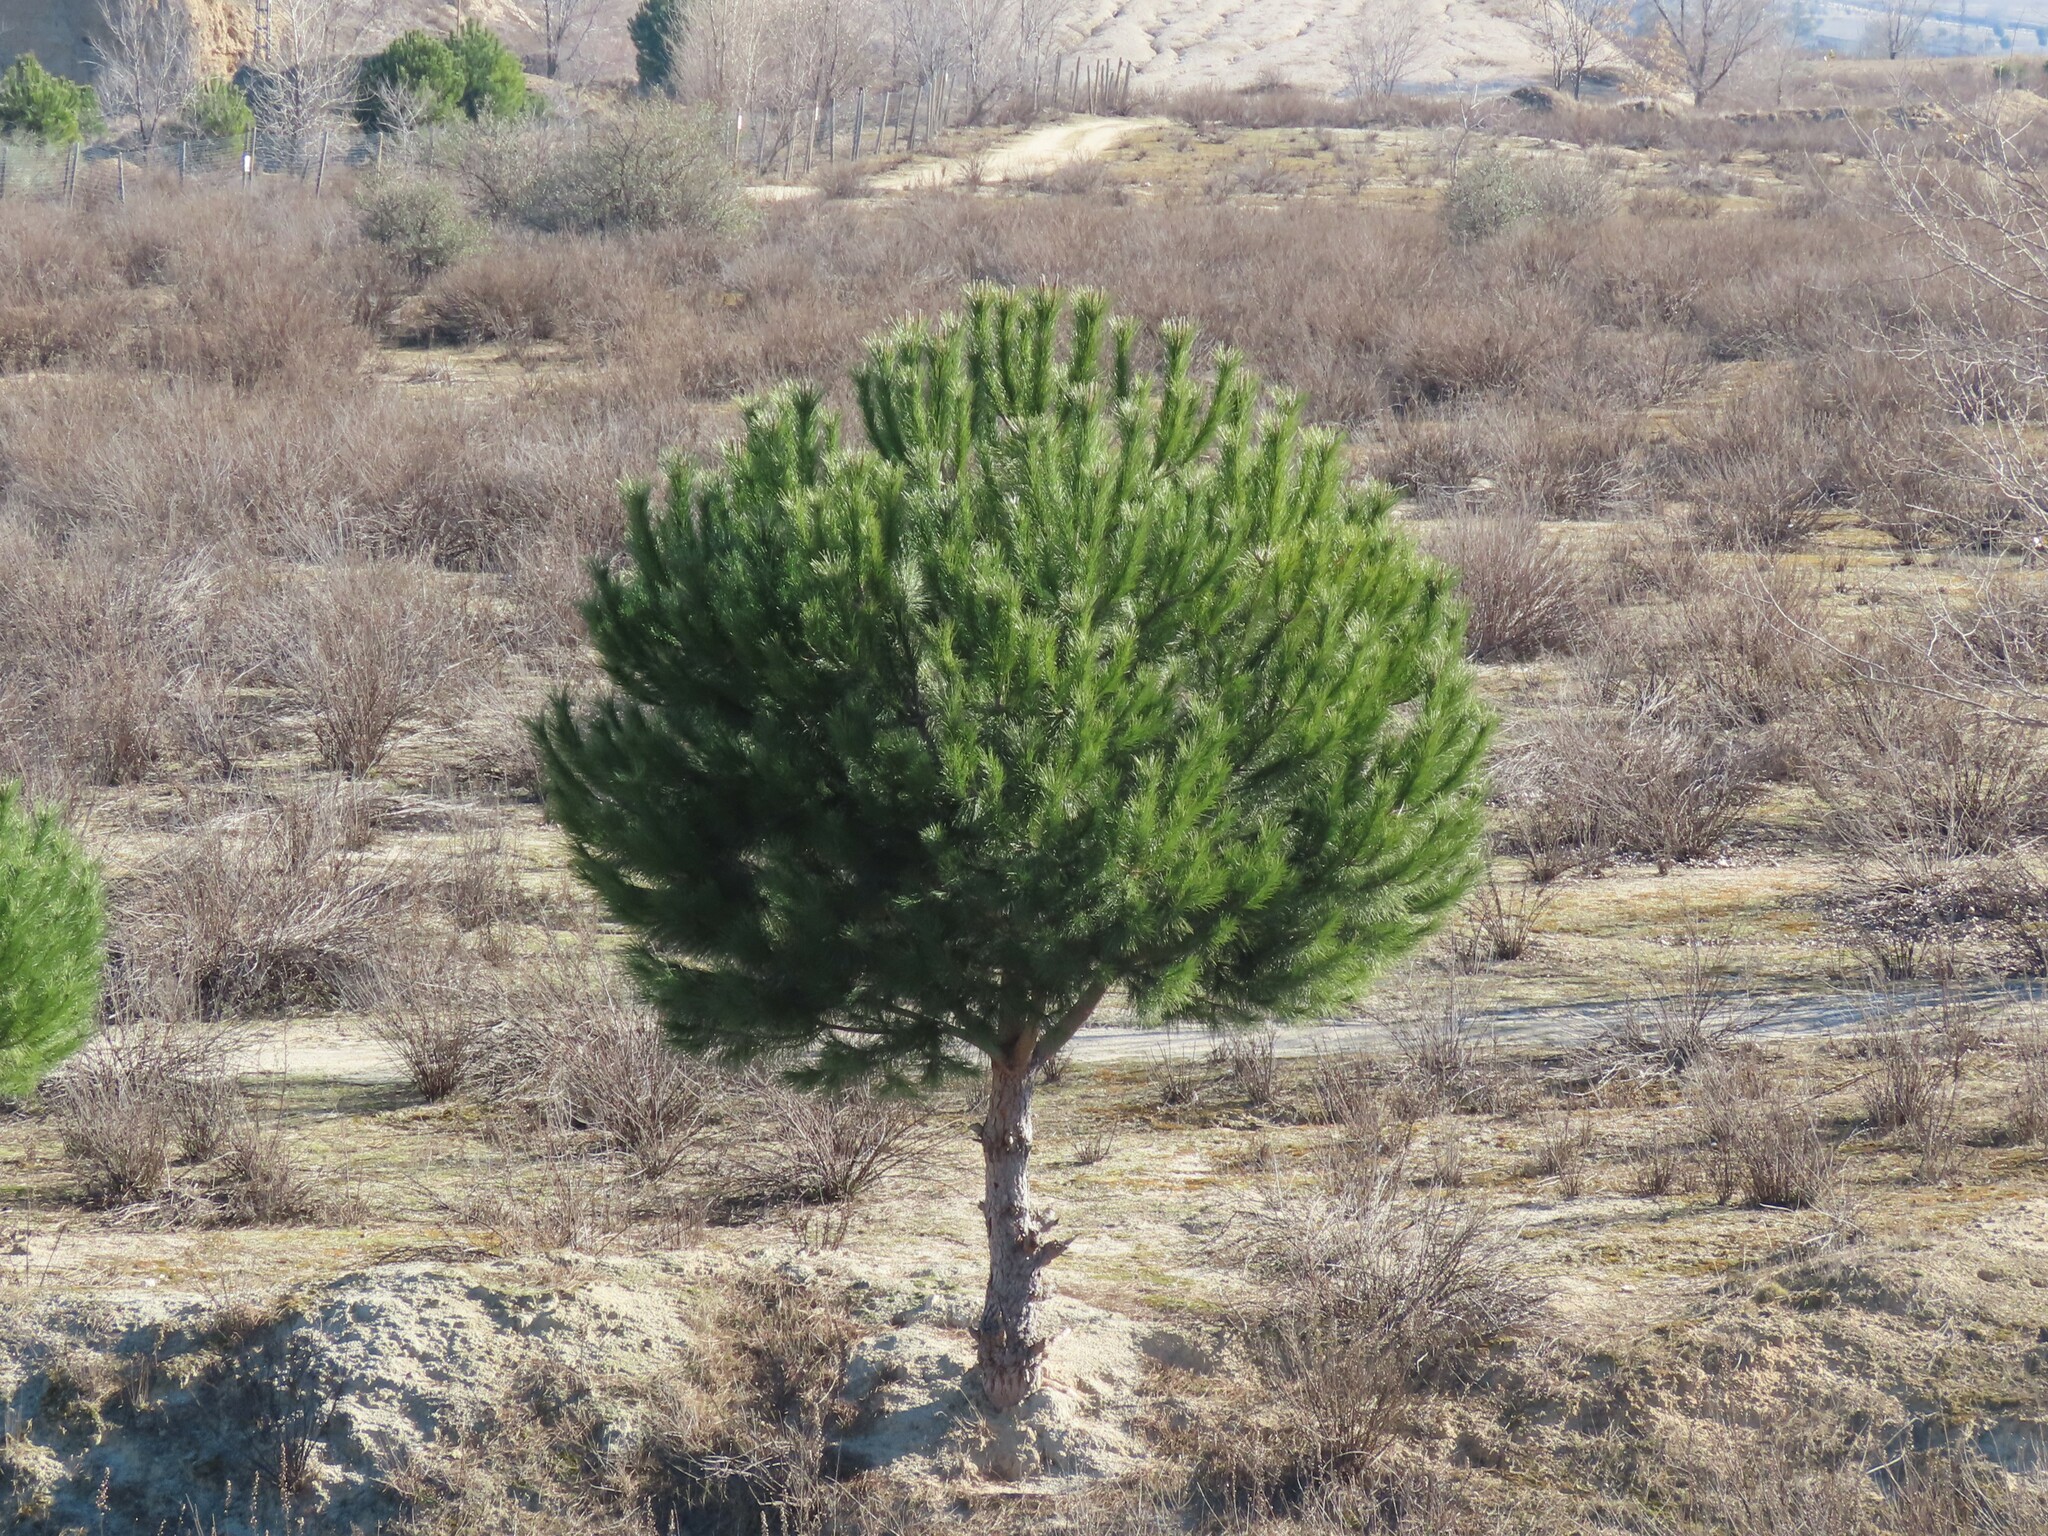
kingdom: Plantae
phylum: Tracheophyta
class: Pinopsida
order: Pinales
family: Pinaceae
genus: Pinus
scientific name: Pinus pinea
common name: Italian stone pine
